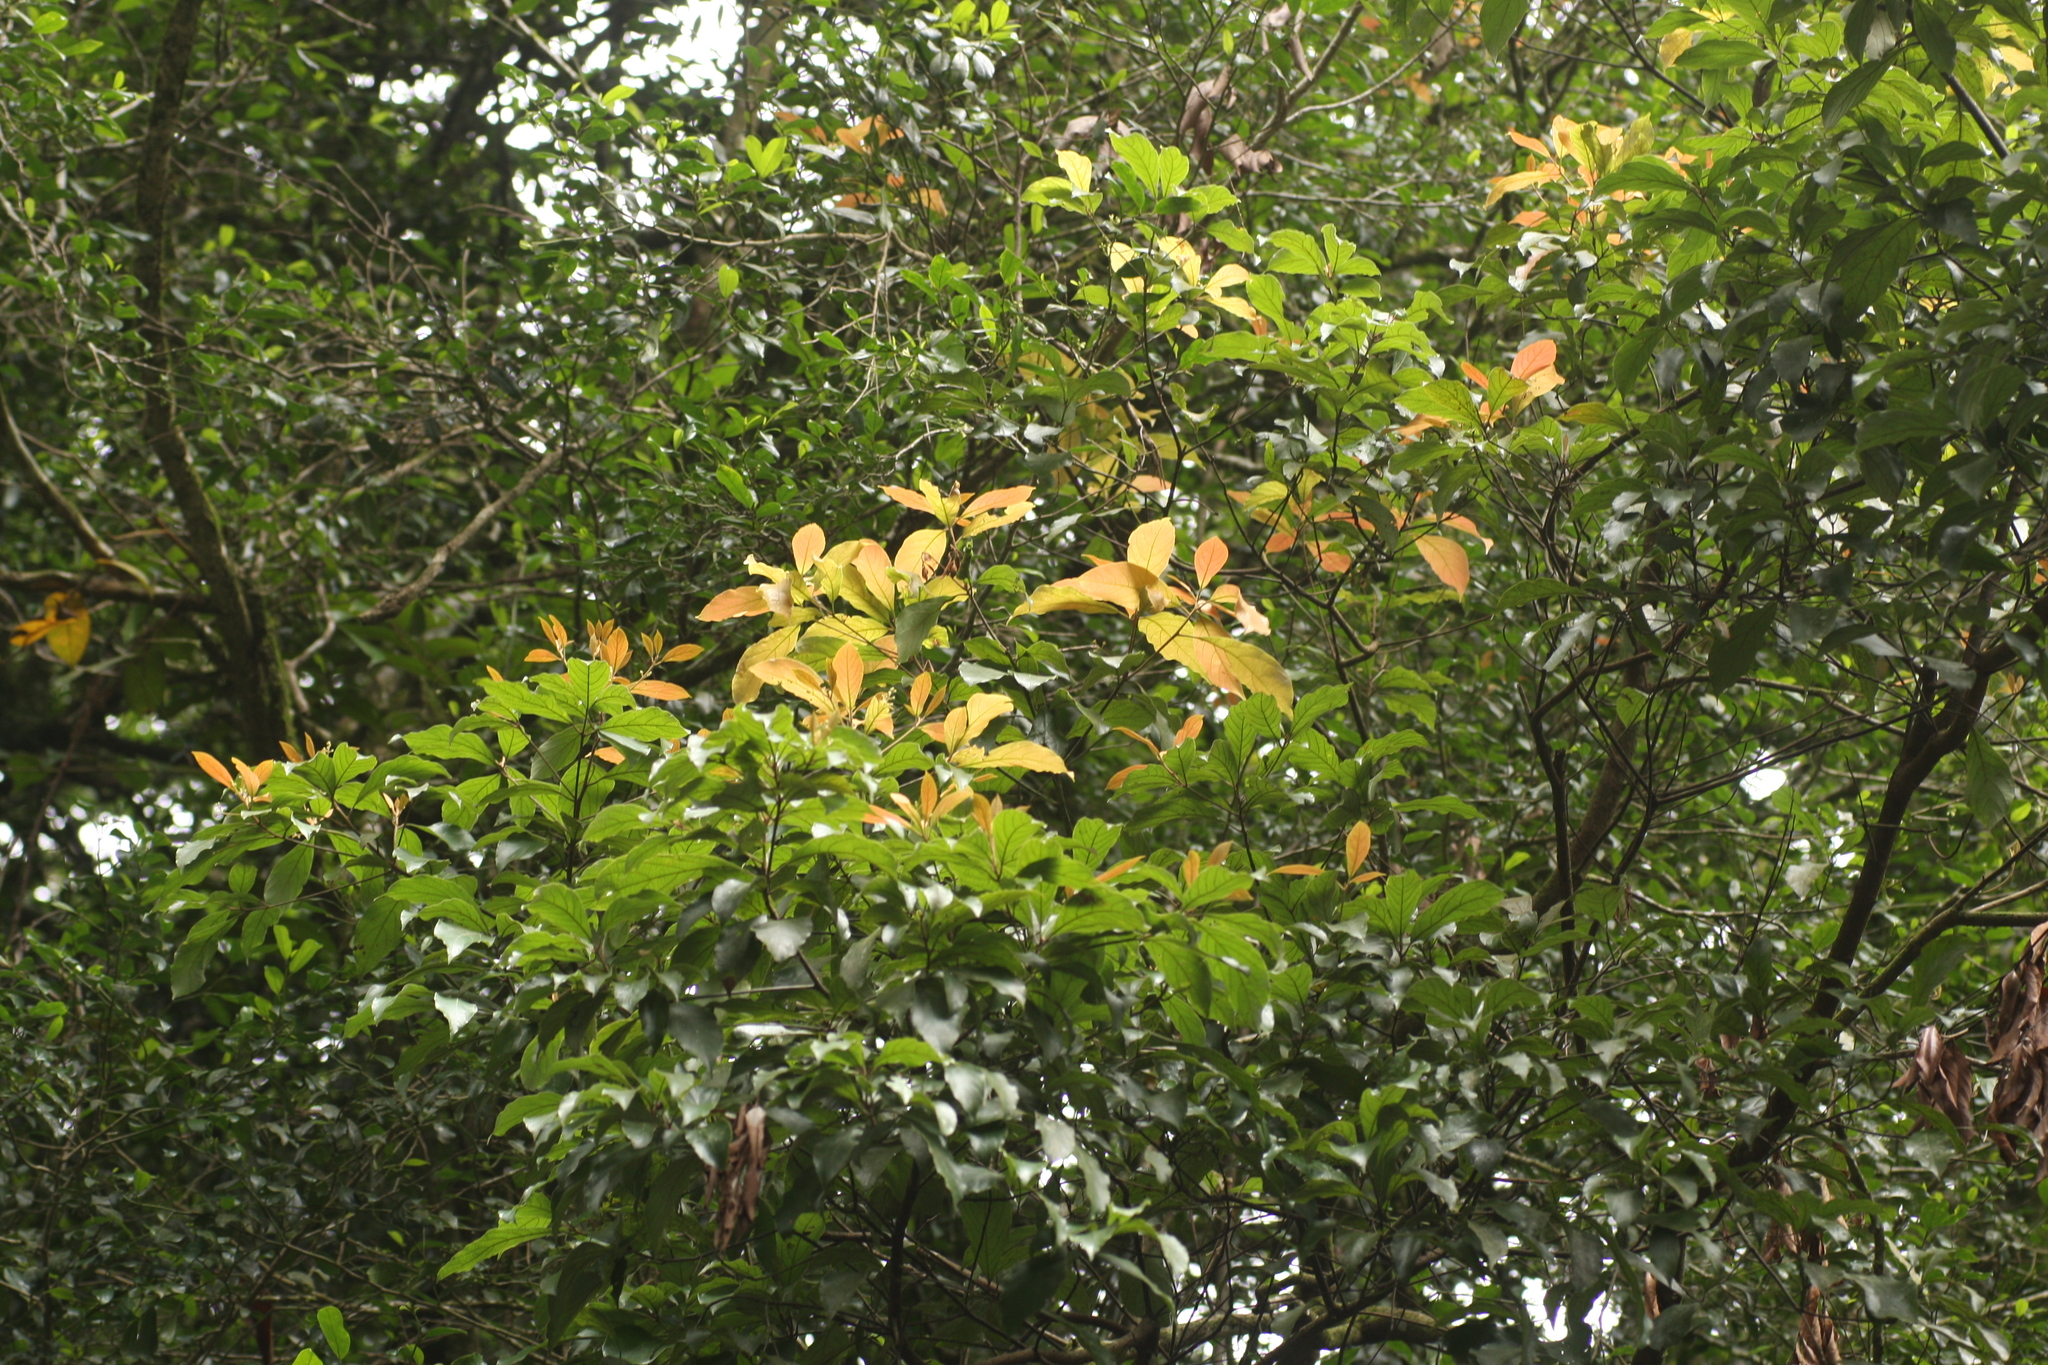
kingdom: Plantae
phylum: Tracheophyta
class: Magnoliopsida
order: Laurales
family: Lauraceae
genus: Machilus
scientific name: Machilus glaucescens
